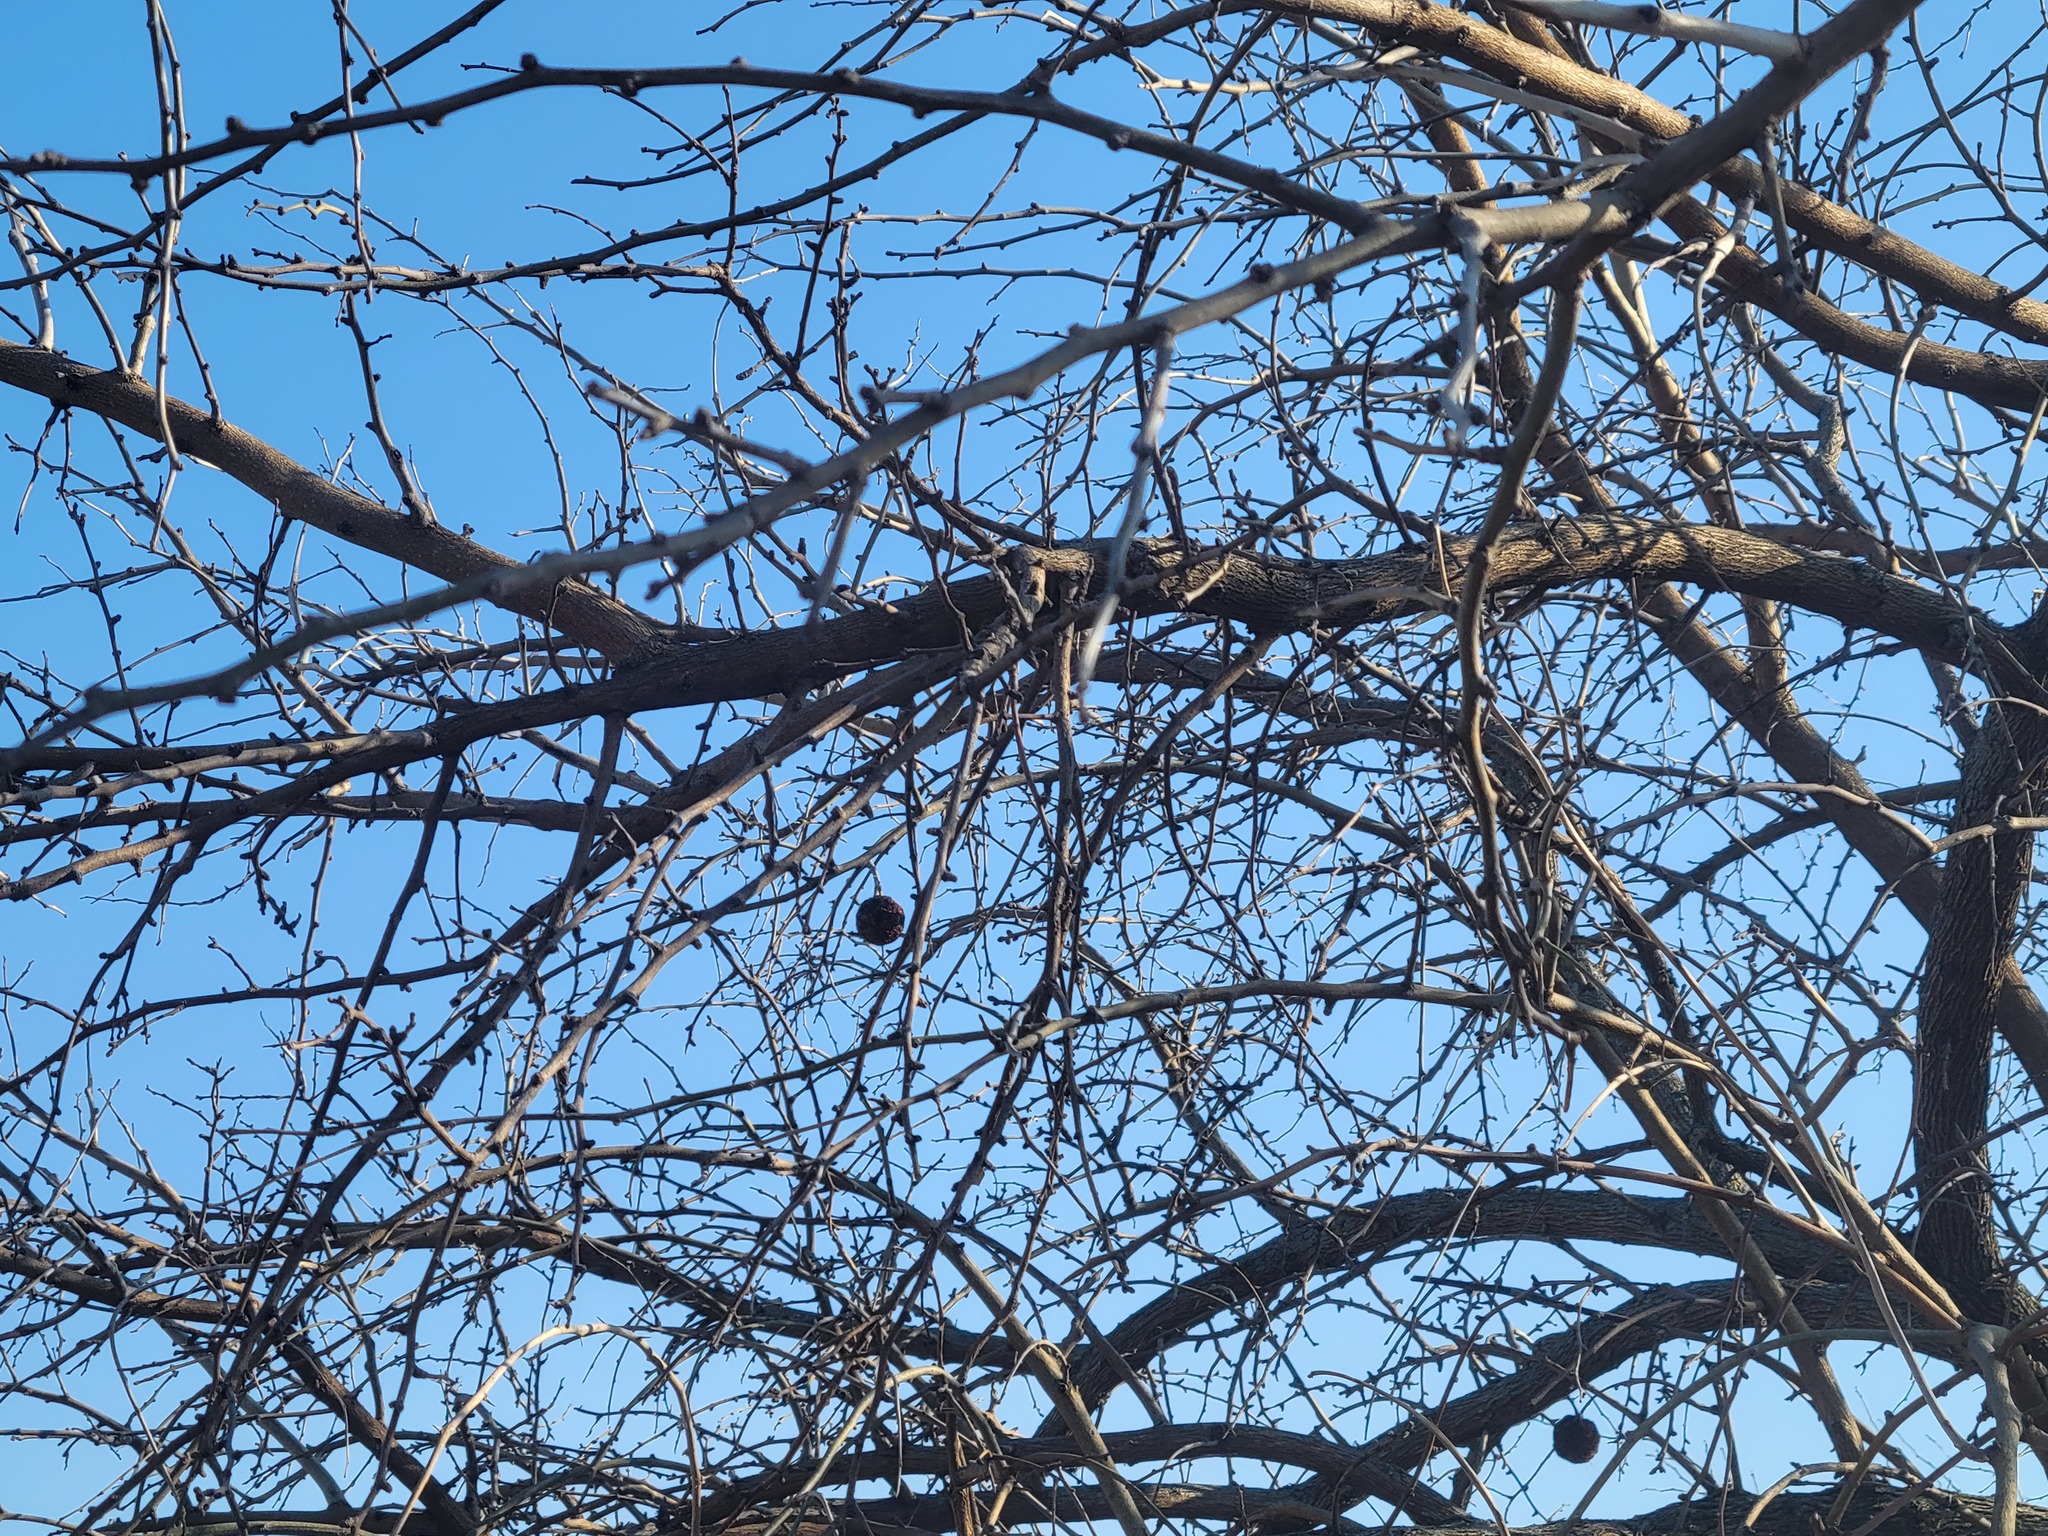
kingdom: Plantae
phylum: Tracheophyta
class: Magnoliopsida
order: Rosales
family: Moraceae
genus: Maclura
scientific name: Maclura pomifera
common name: Osage-orange
